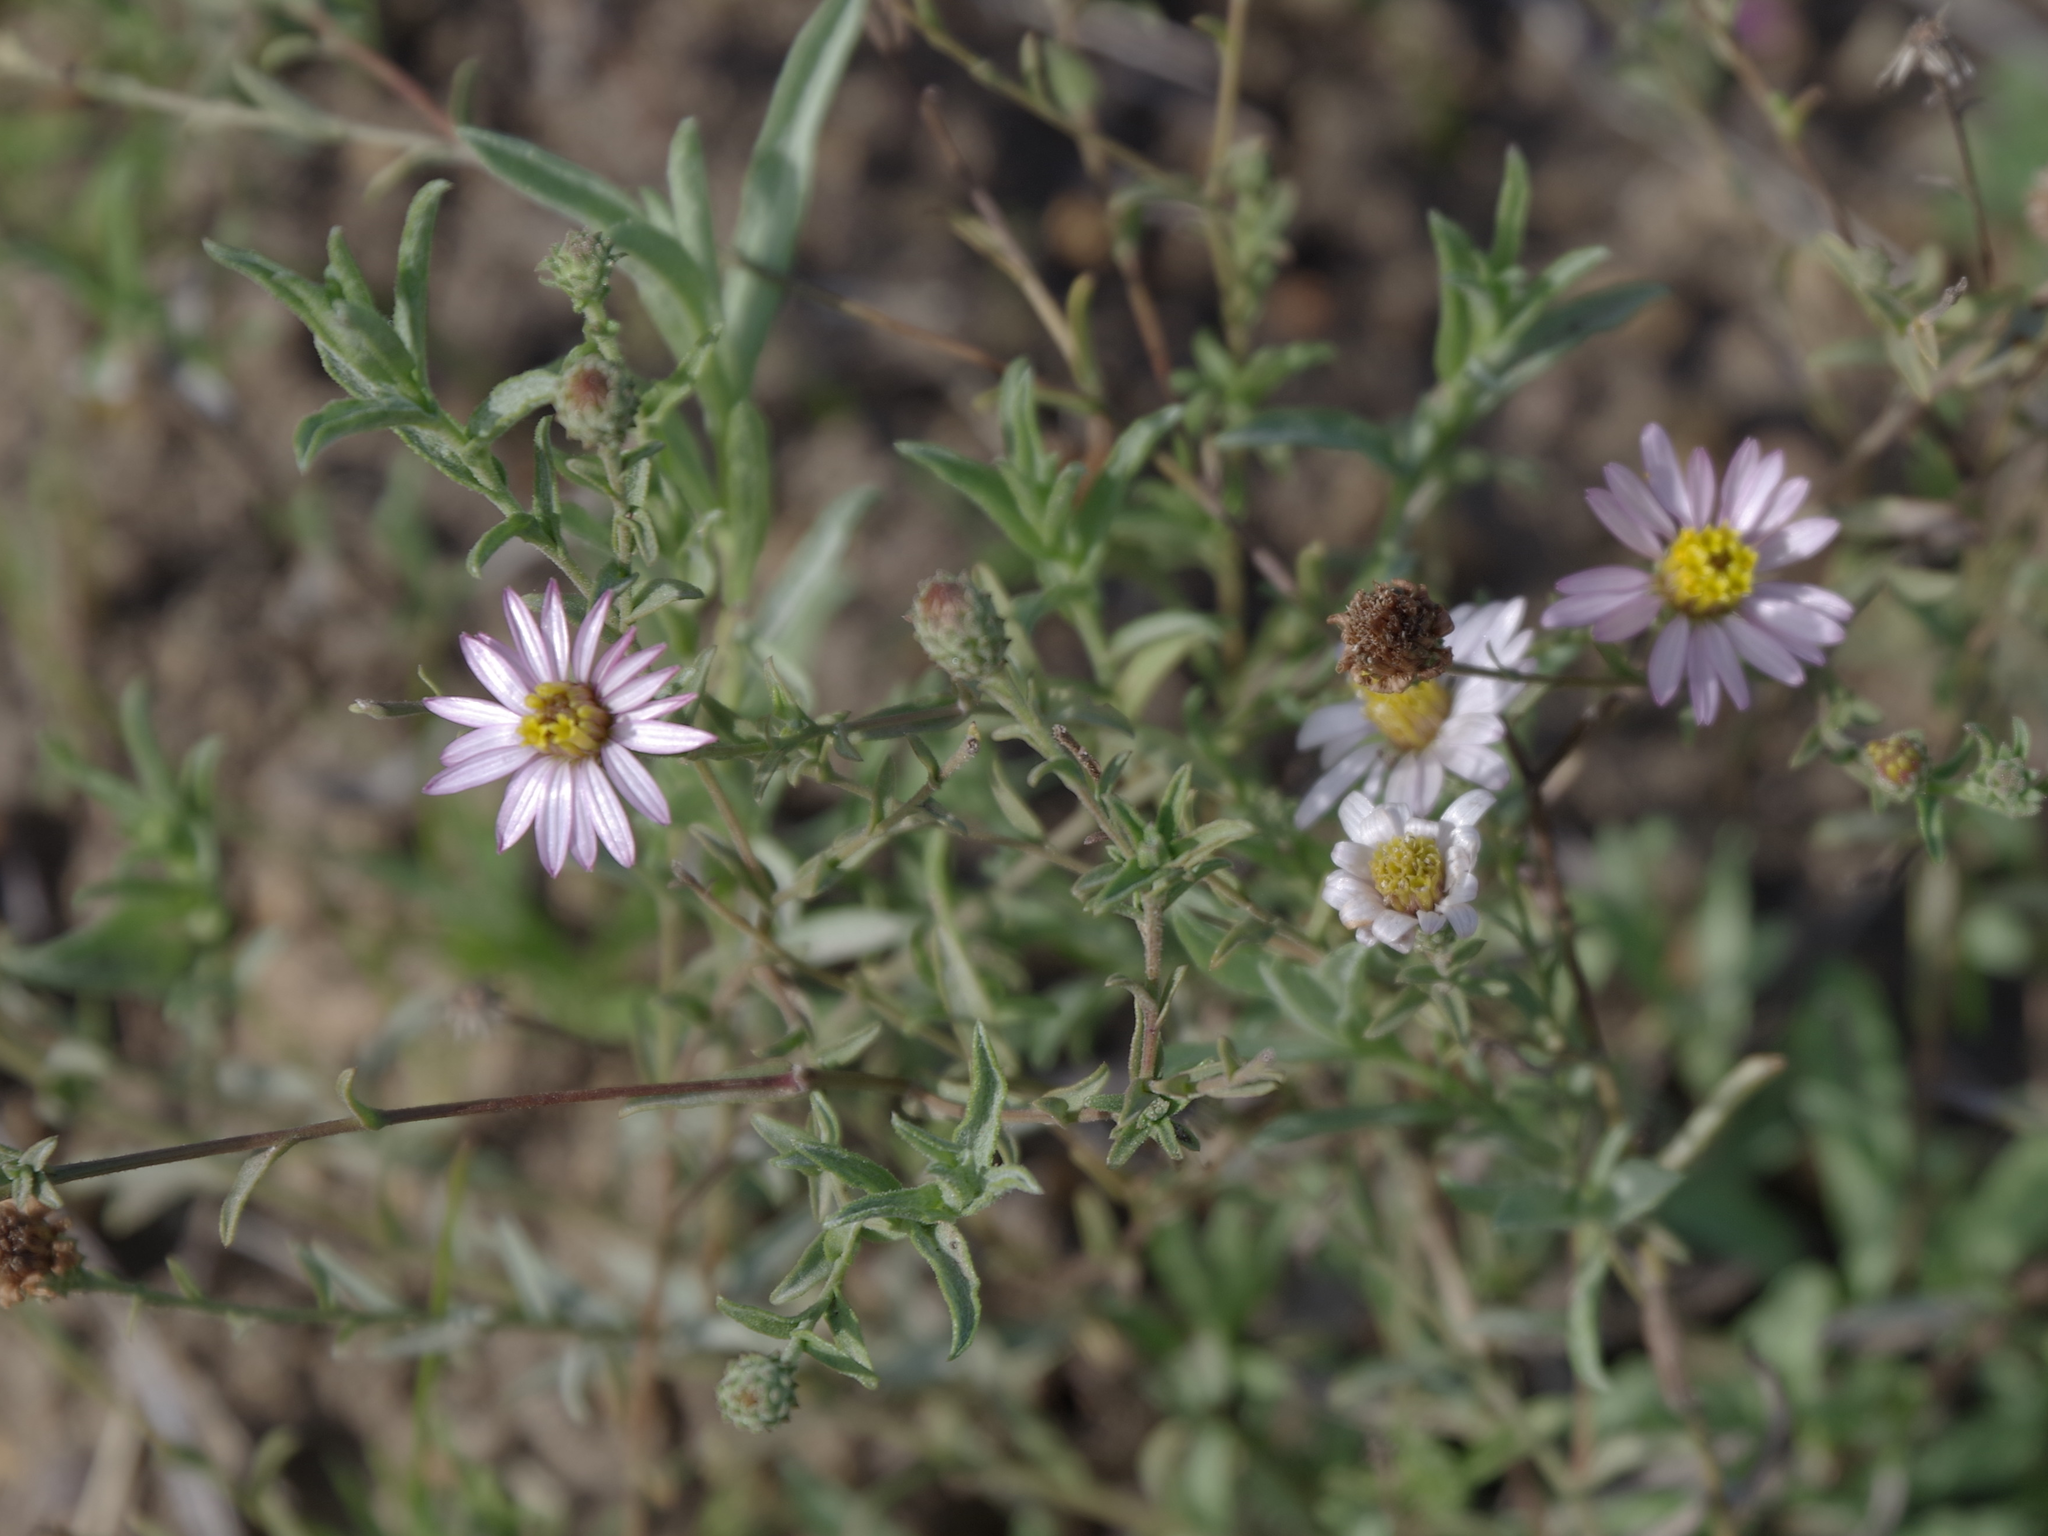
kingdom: Plantae
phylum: Tracheophyta
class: Magnoliopsida
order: Asterales
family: Asteraceae
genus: Corethrogyne
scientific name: Corethrogyne filaginifolia
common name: Sand-aster
